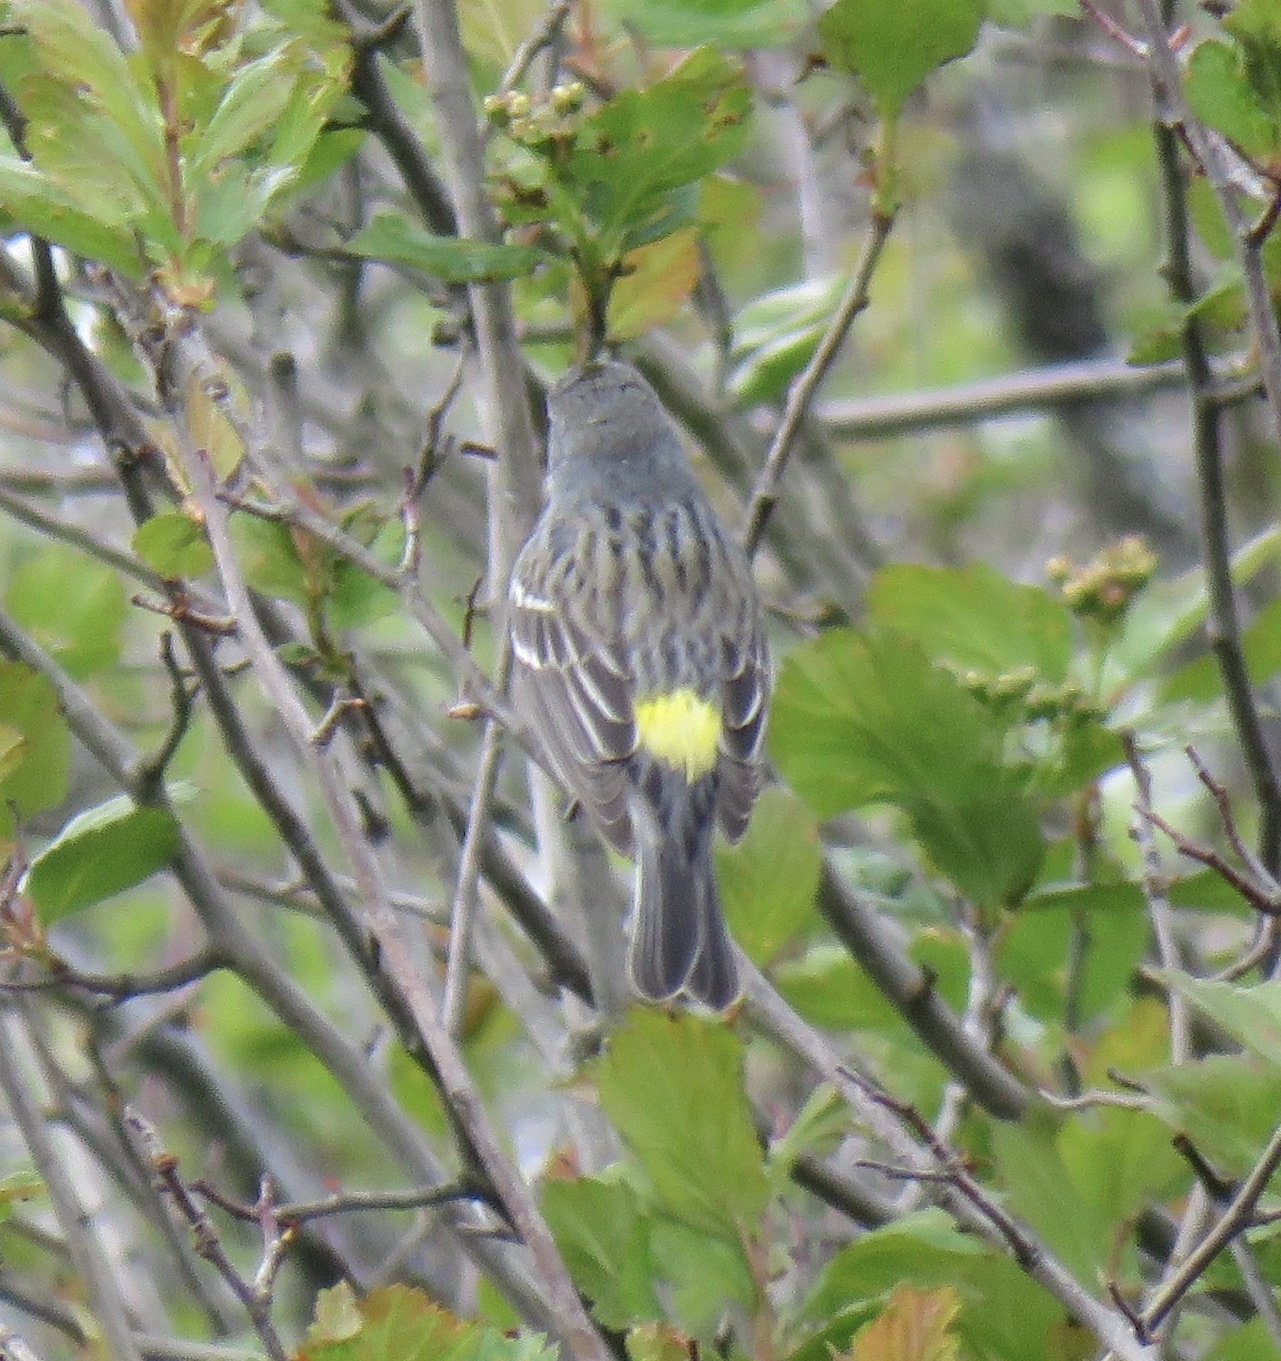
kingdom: Animalia
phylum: Chordata
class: Aves
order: Passeriformes
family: Parulidae
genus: Setophaga
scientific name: Setophaga coronata
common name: Myrtle warbler
